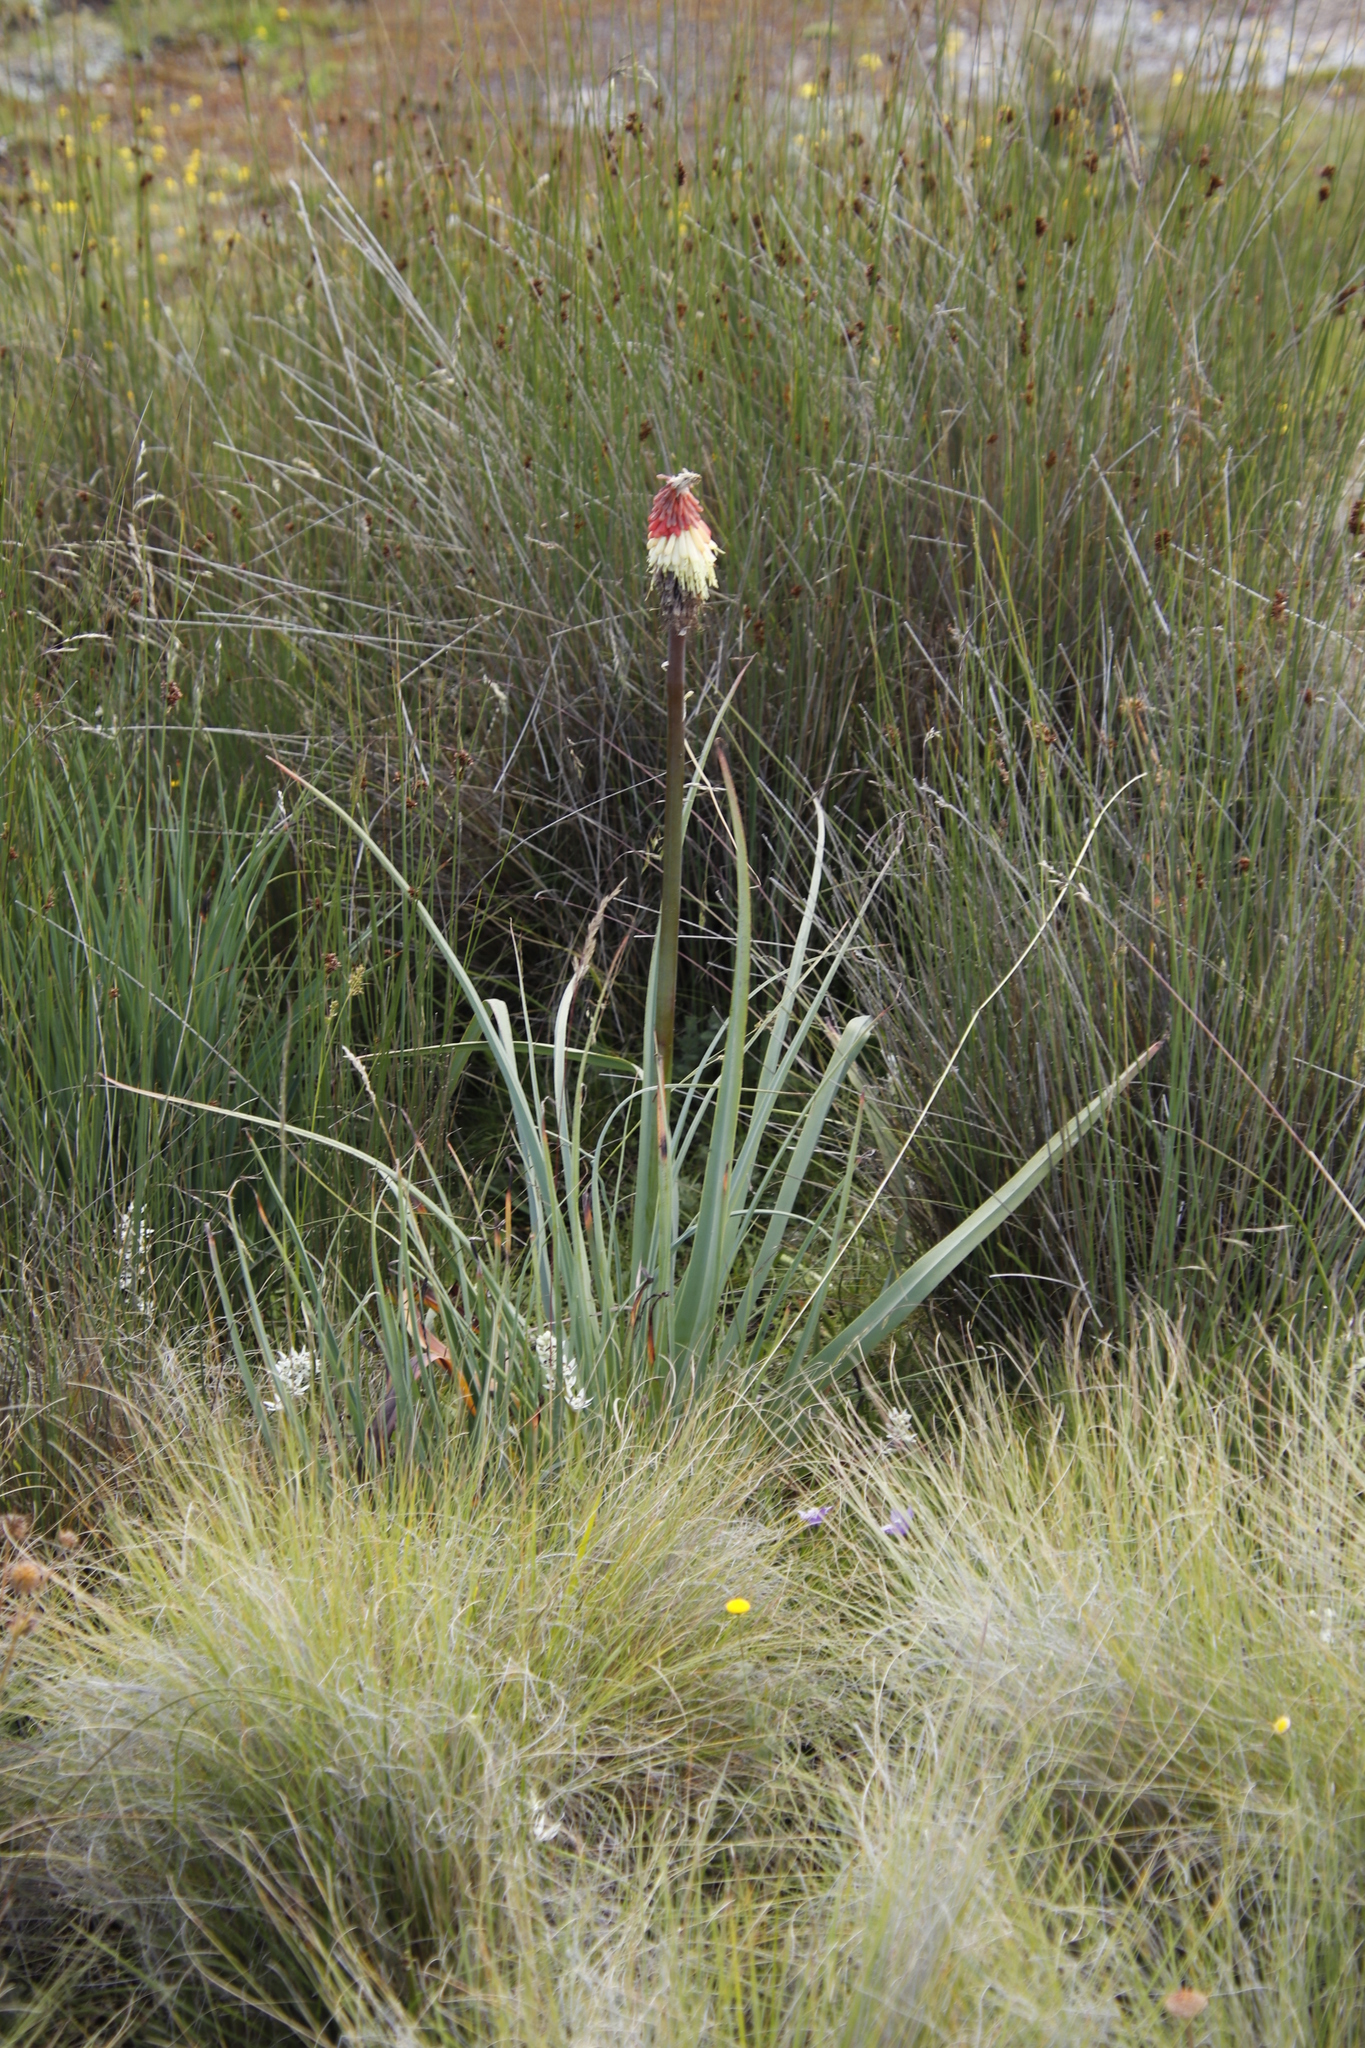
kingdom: Plantae
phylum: Tracheophyta
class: Liliopsida
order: Asparagales
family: Asphodelaceae
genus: Kniphofia
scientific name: Kniphofia caulescens
